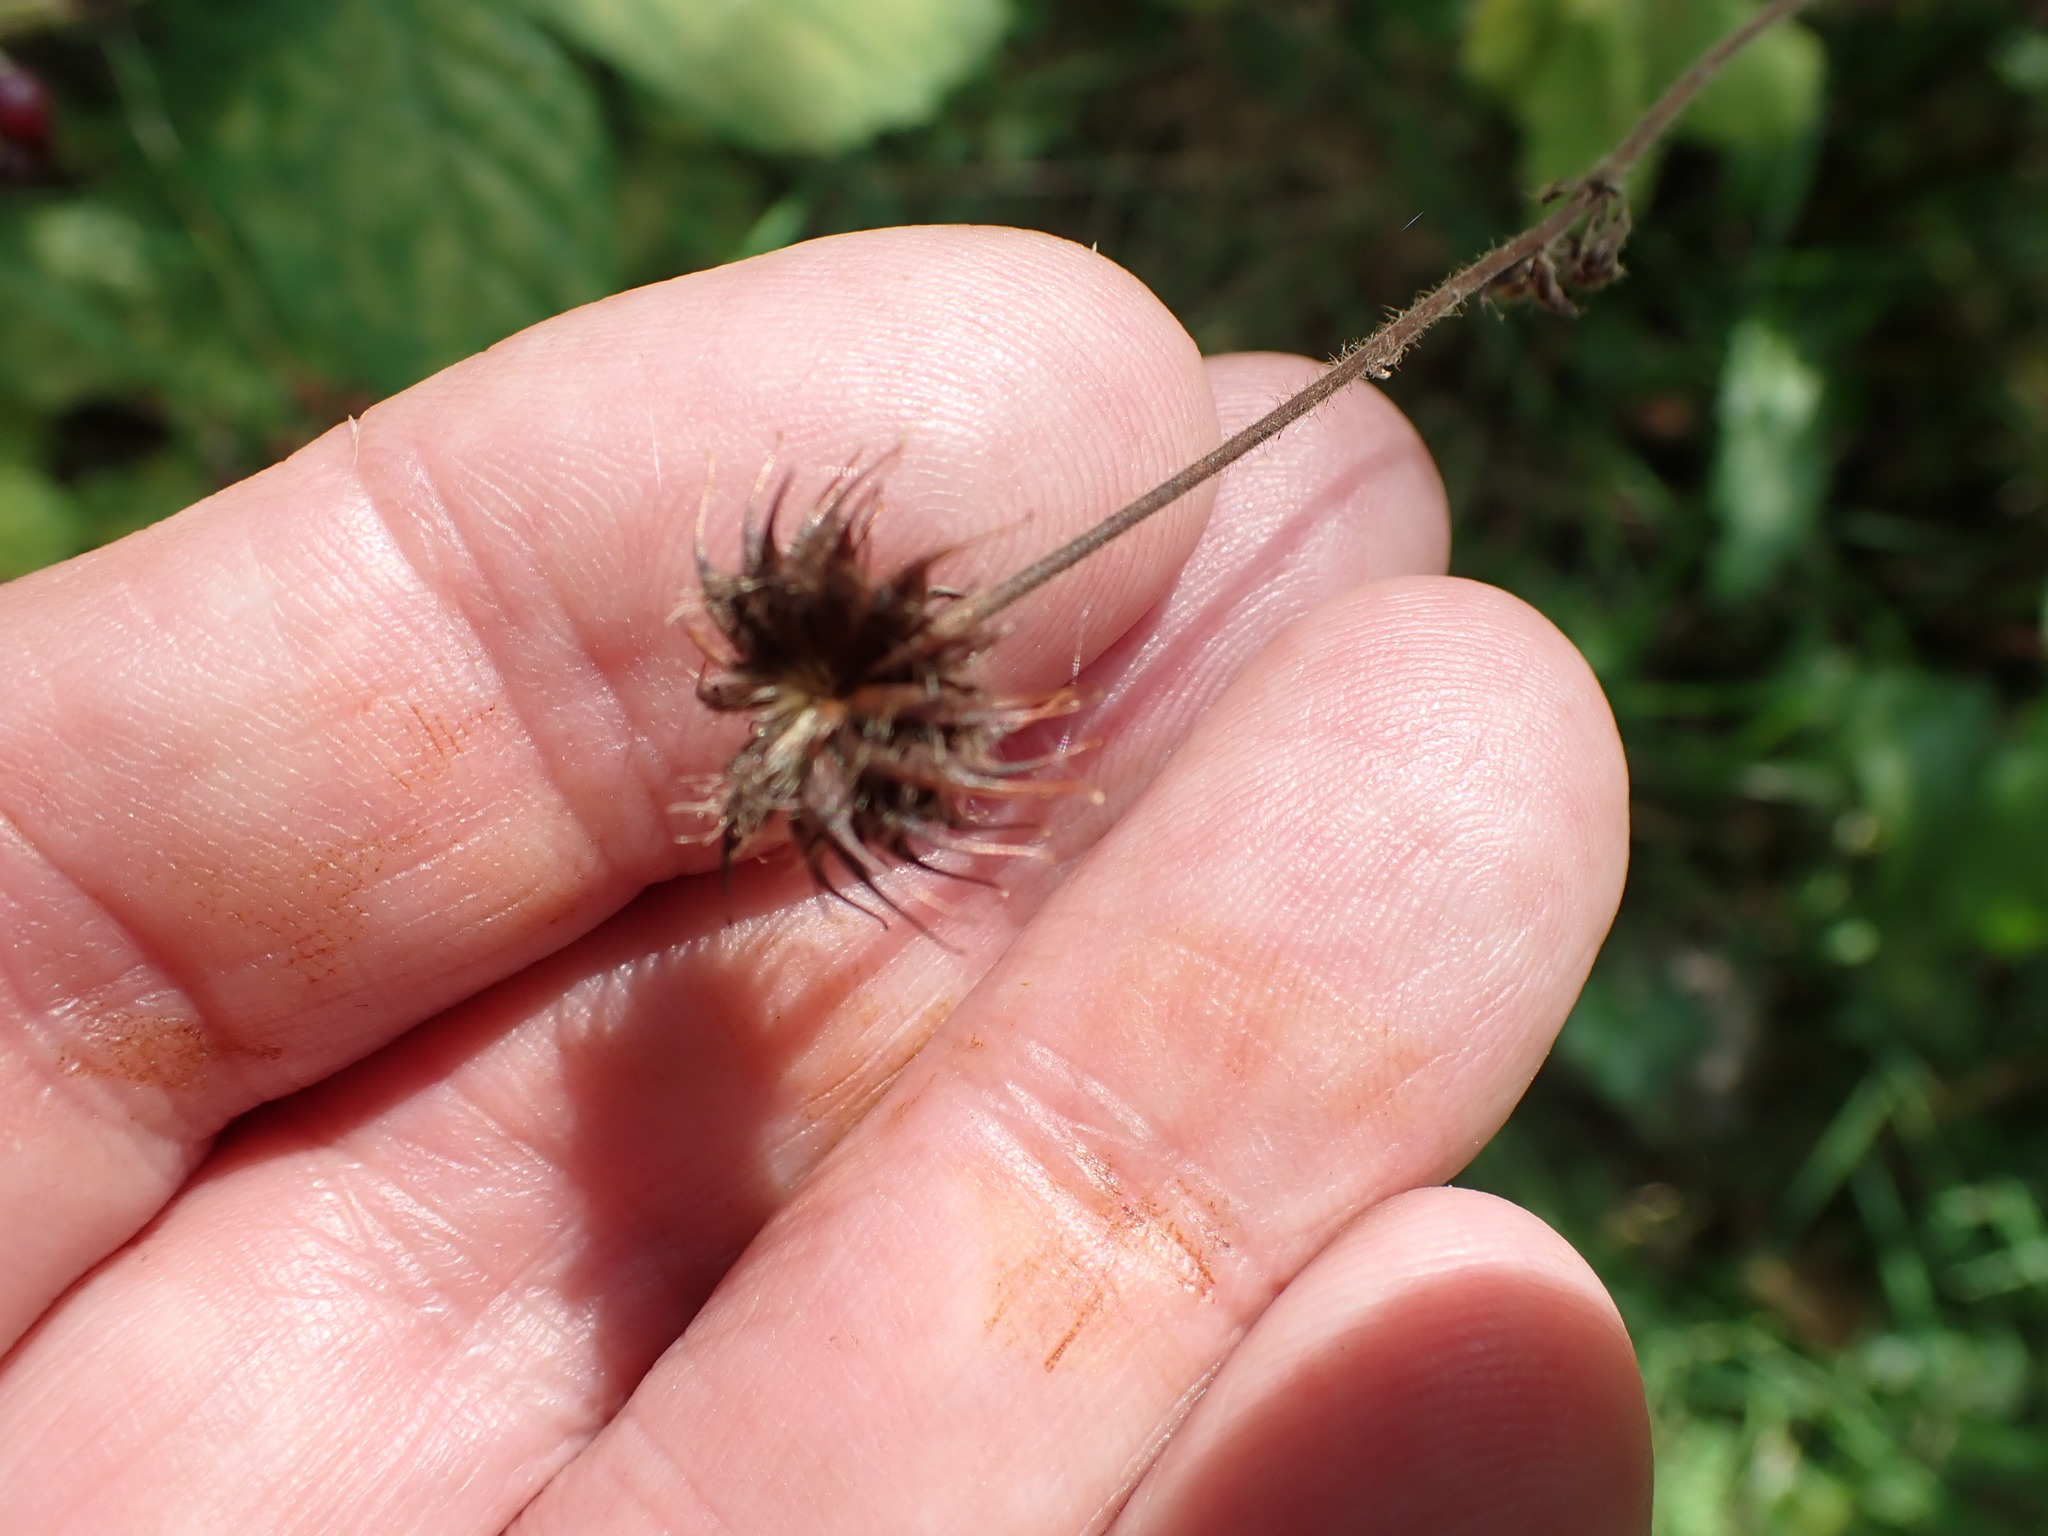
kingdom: Plantae
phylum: Tracheophyta
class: Magnoliopsida
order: Rosales
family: Rosaceae
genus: Geum
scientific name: Geum urbanum
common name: Wood avens
